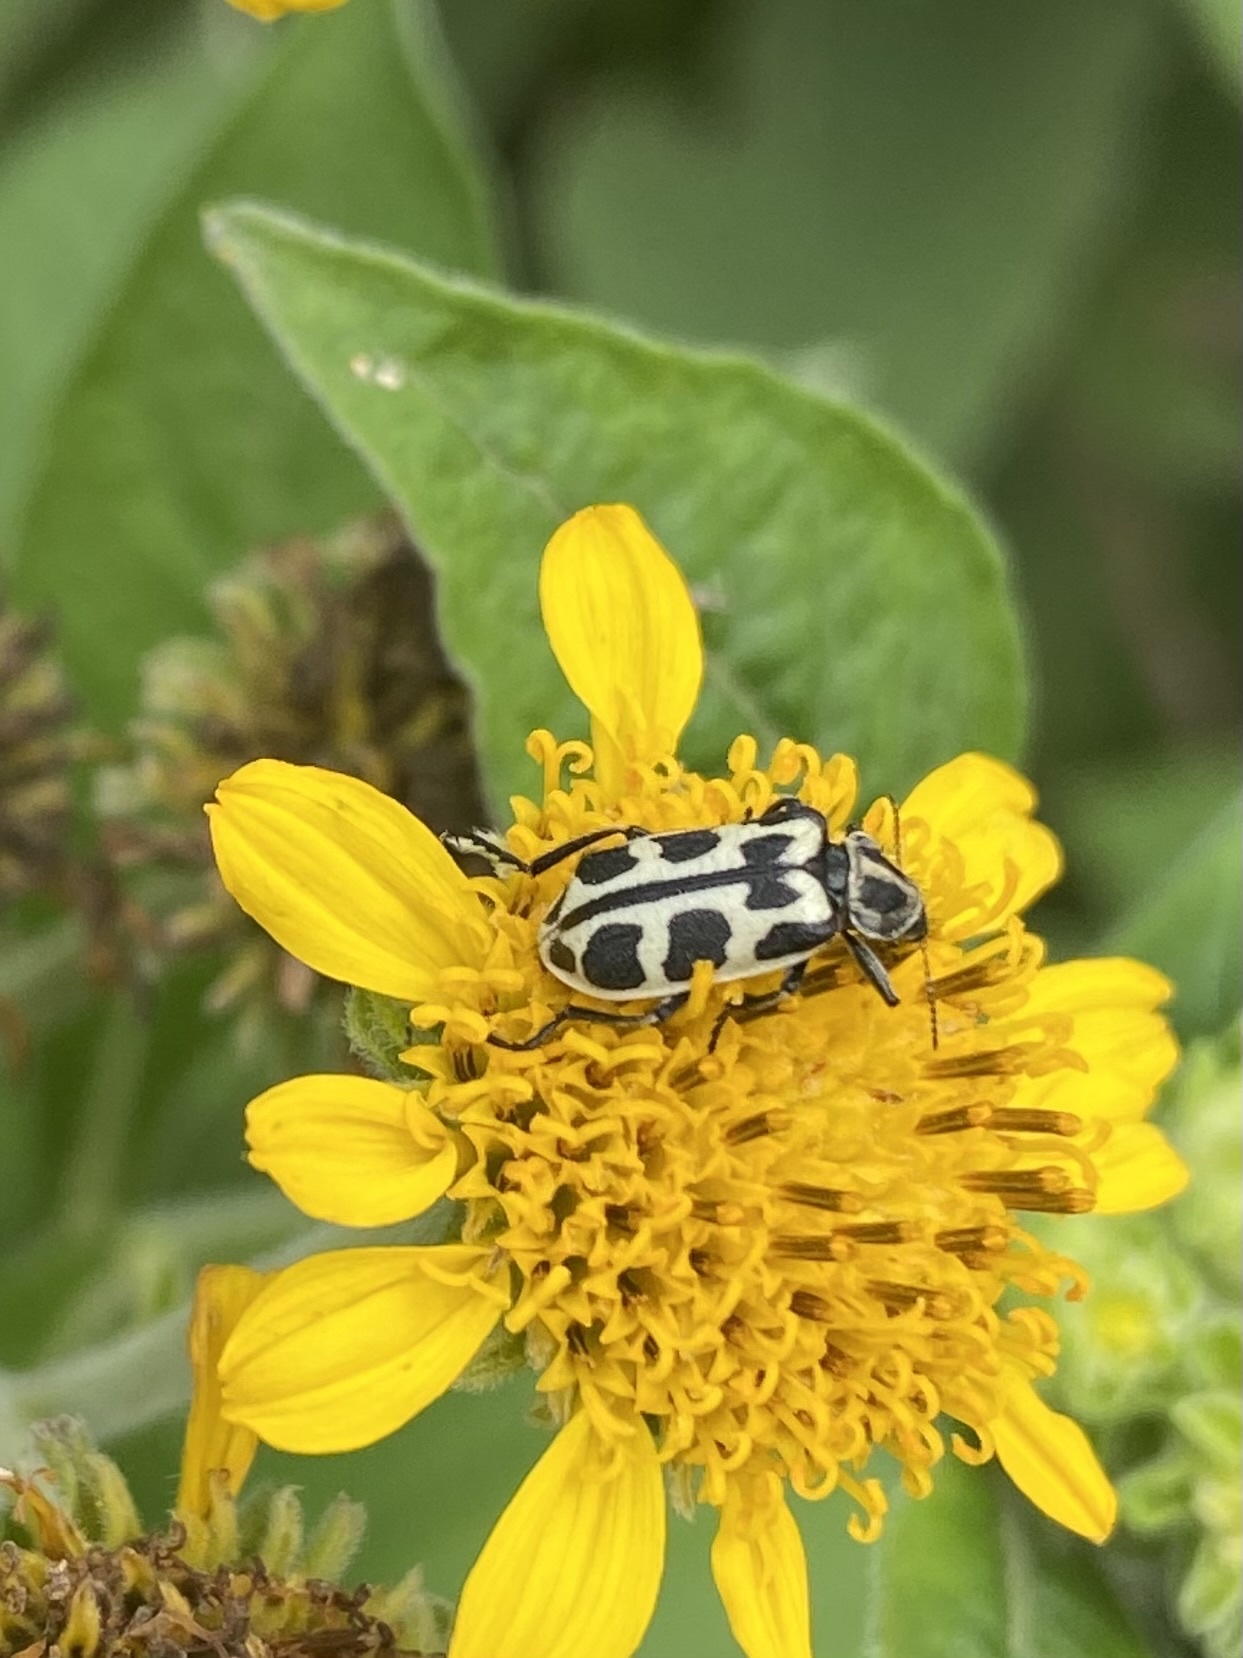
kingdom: Animalia
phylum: Arthropoda
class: Insecta
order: Coleoptera
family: Melyridae
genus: Astylus
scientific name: Astylus atromaculatus
